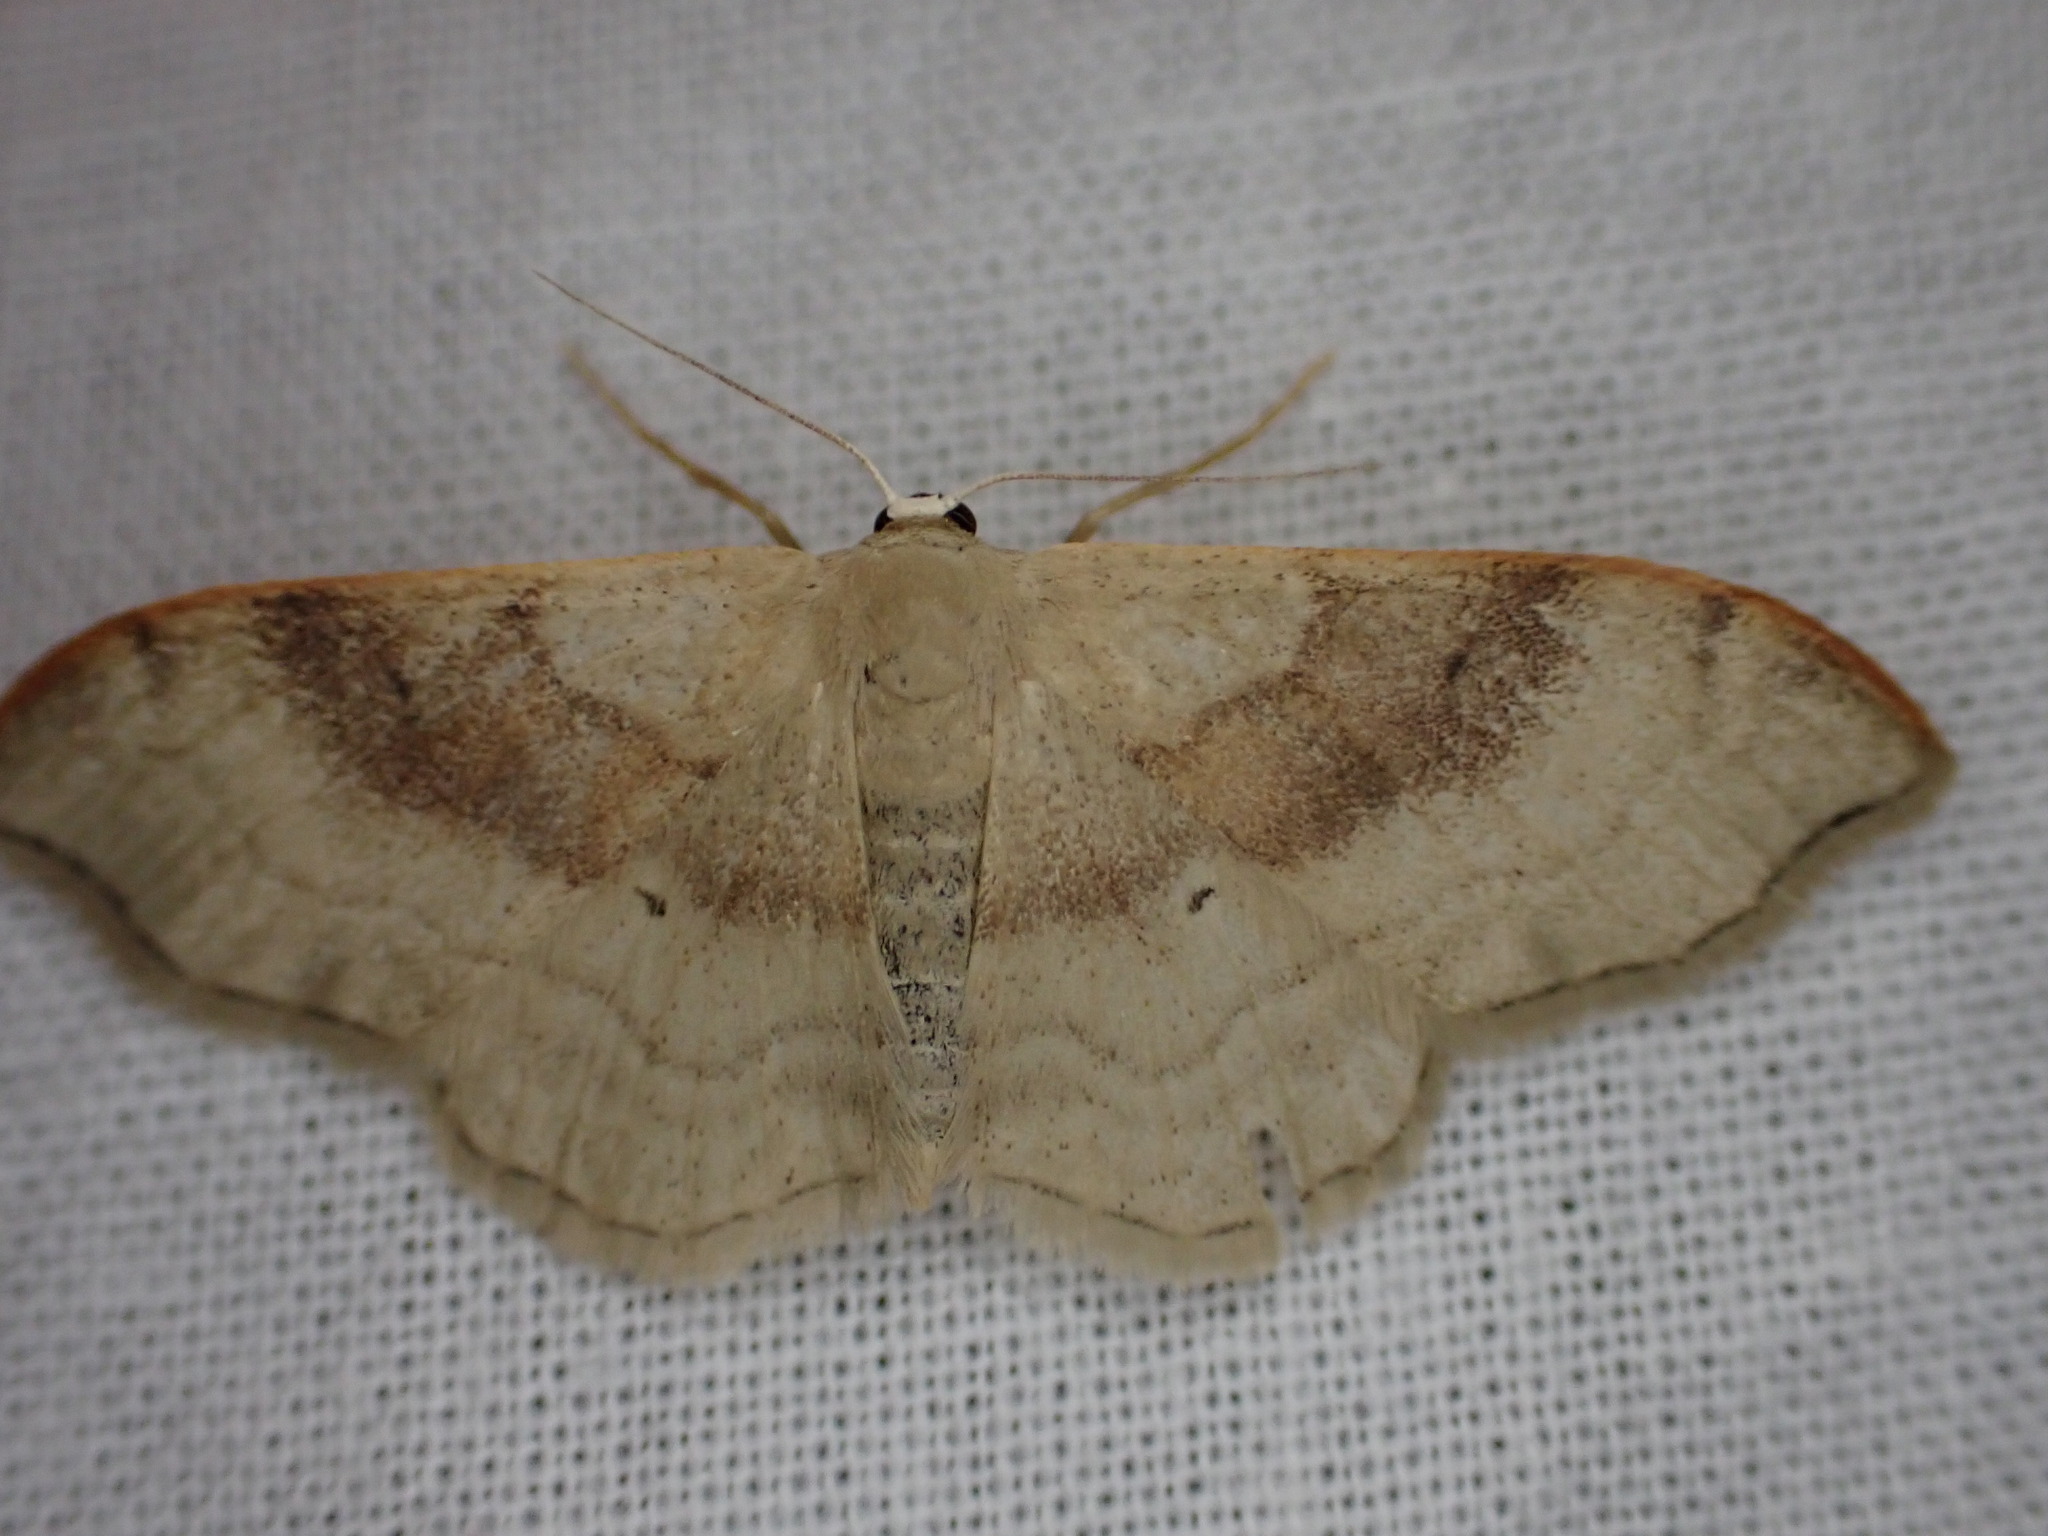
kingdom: Animalia
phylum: Arthropoda
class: Insecta
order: Lepidoptera
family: Geometridae
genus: Idaea
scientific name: Idaea degeneraria
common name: Portland ribbon wave
